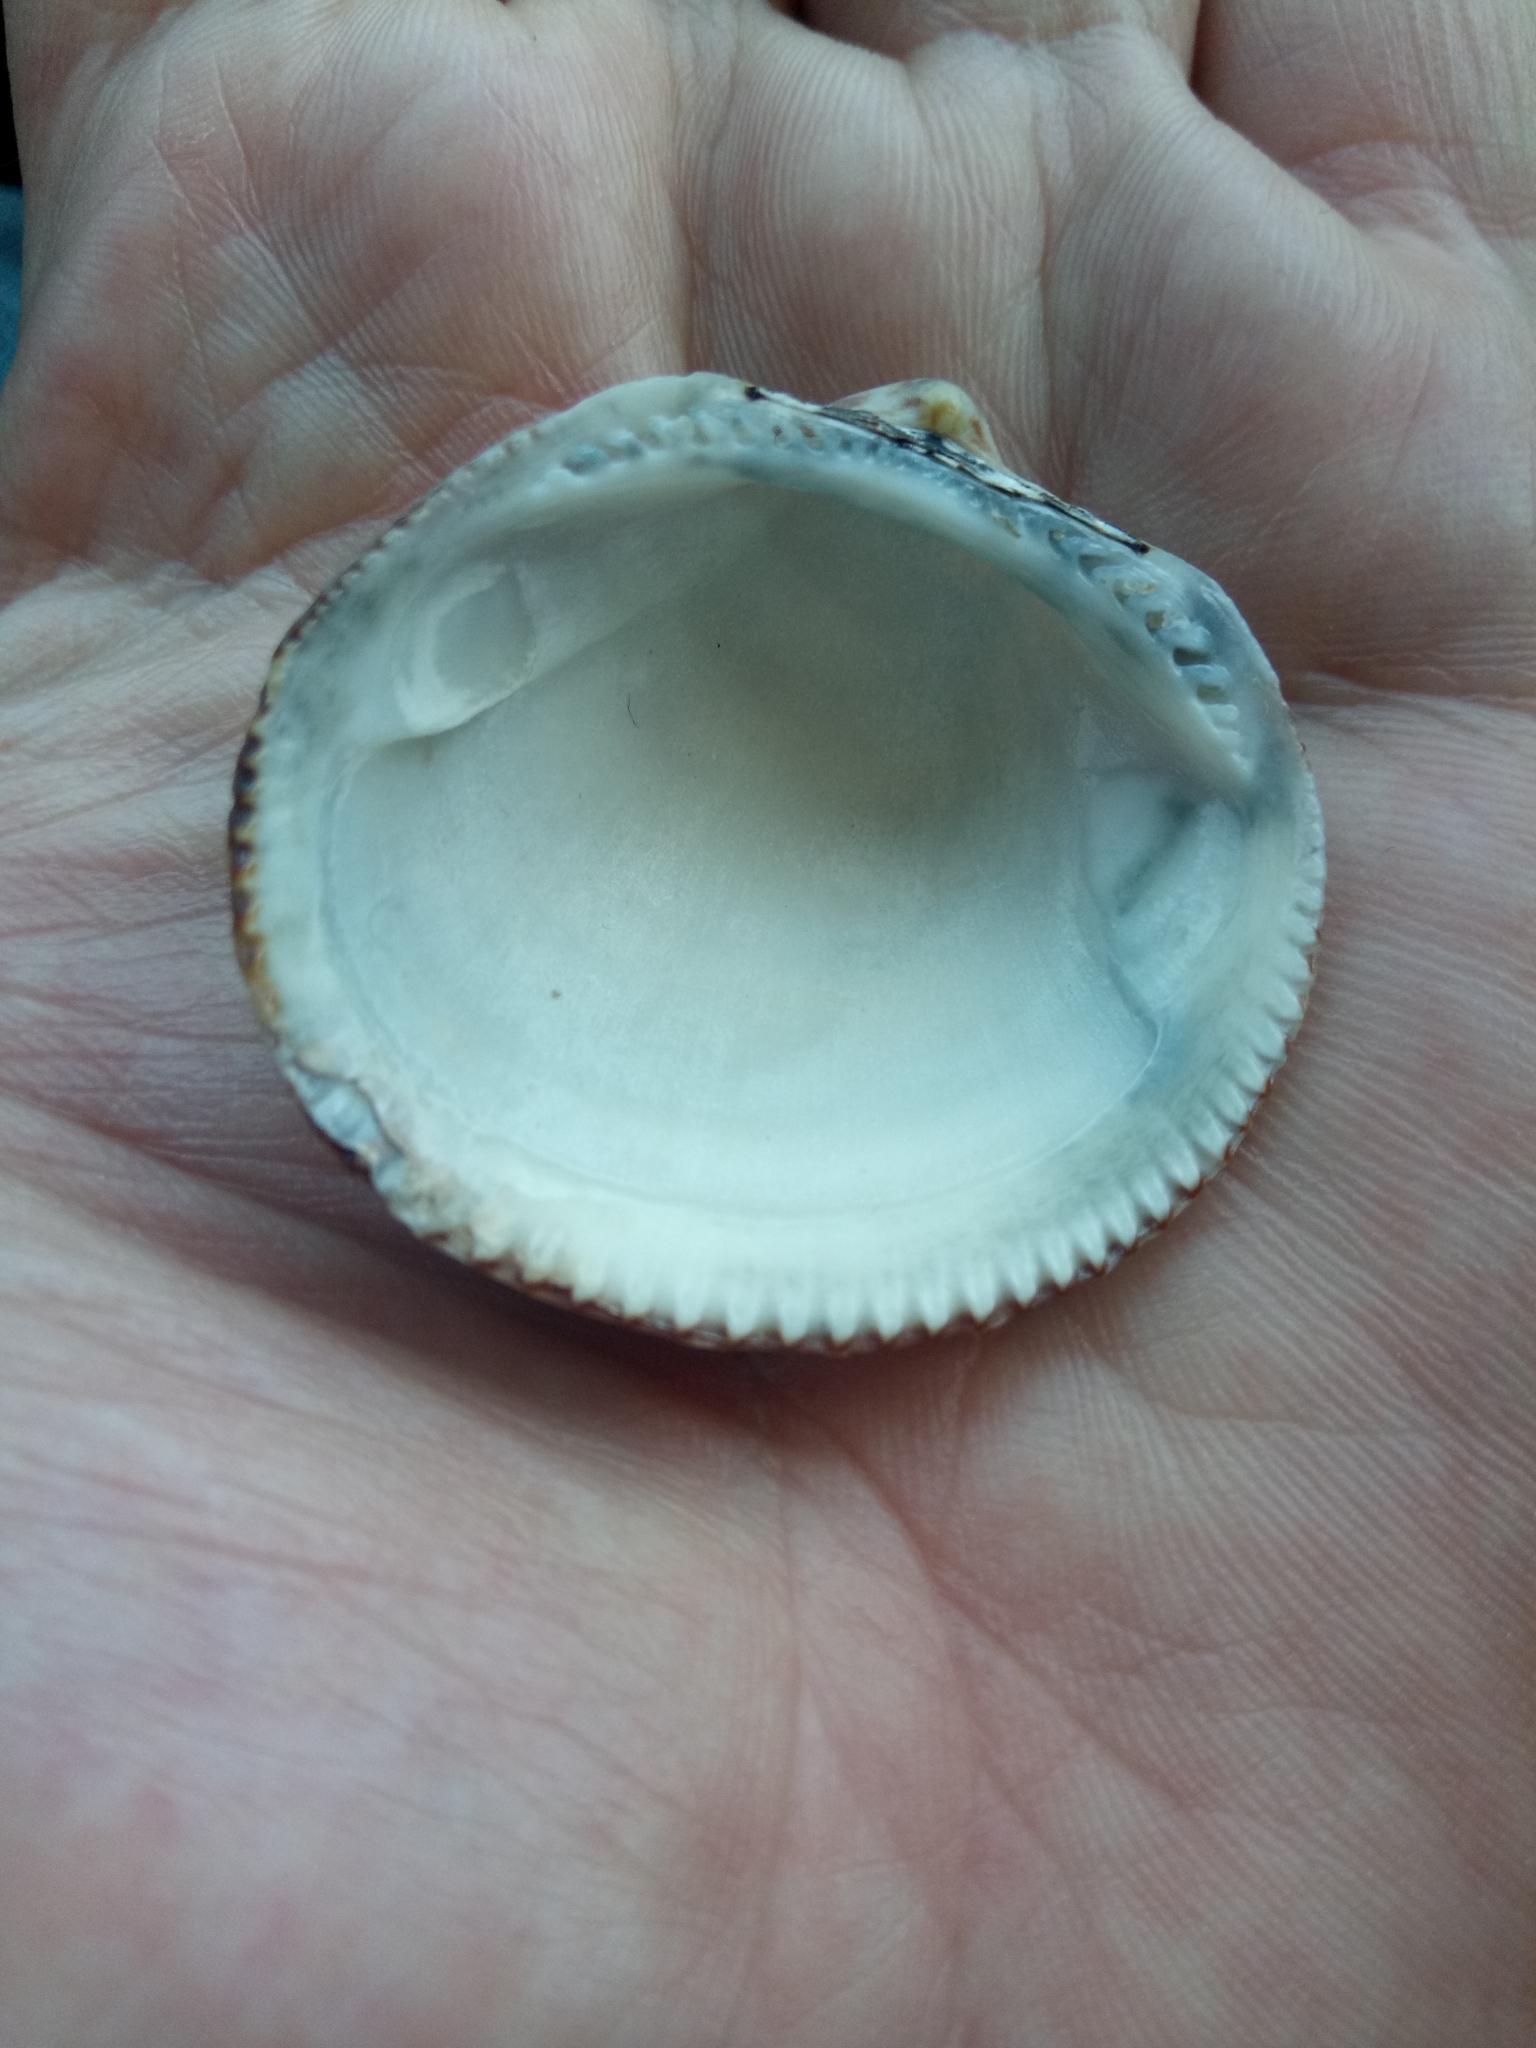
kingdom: Animalia
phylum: Mollusca
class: Bivalvia
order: Arcida
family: Glycymerididae
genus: Glycymeris
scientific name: Glycymeris glycymeris
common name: Dog-cockle
